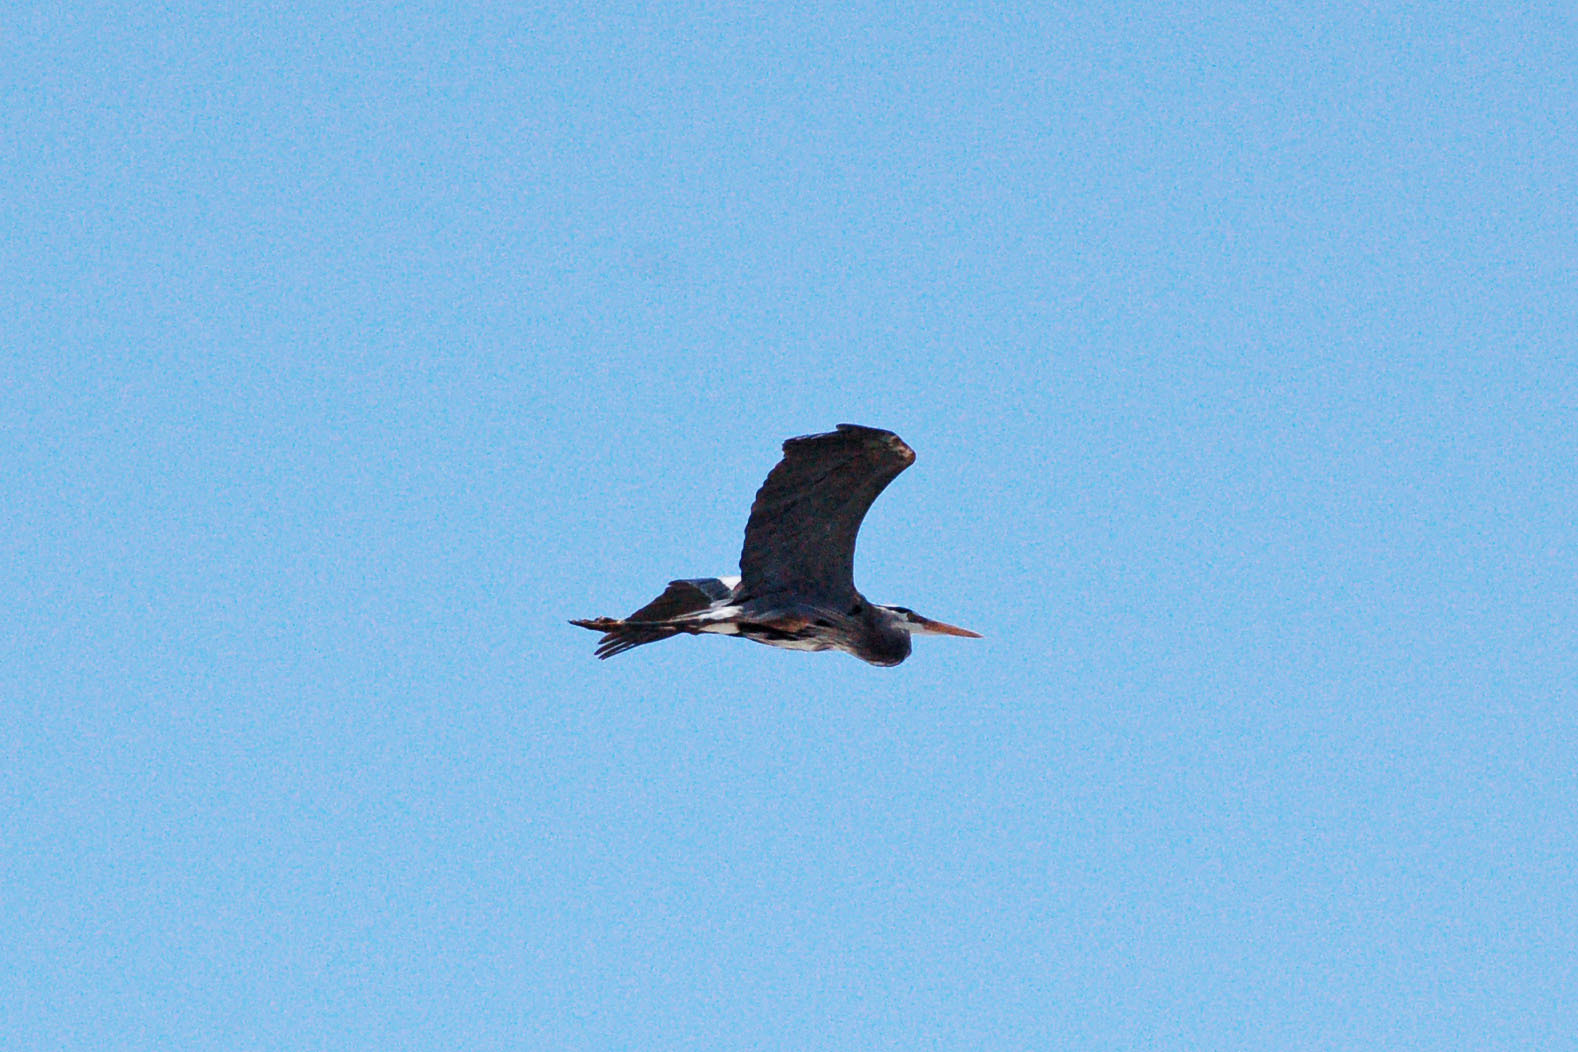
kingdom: Animalia
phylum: Chordata
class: Aves
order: Pelecaniformes
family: Ardeidae
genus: Ardea
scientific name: Ardea herodias
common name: Great blue heron
